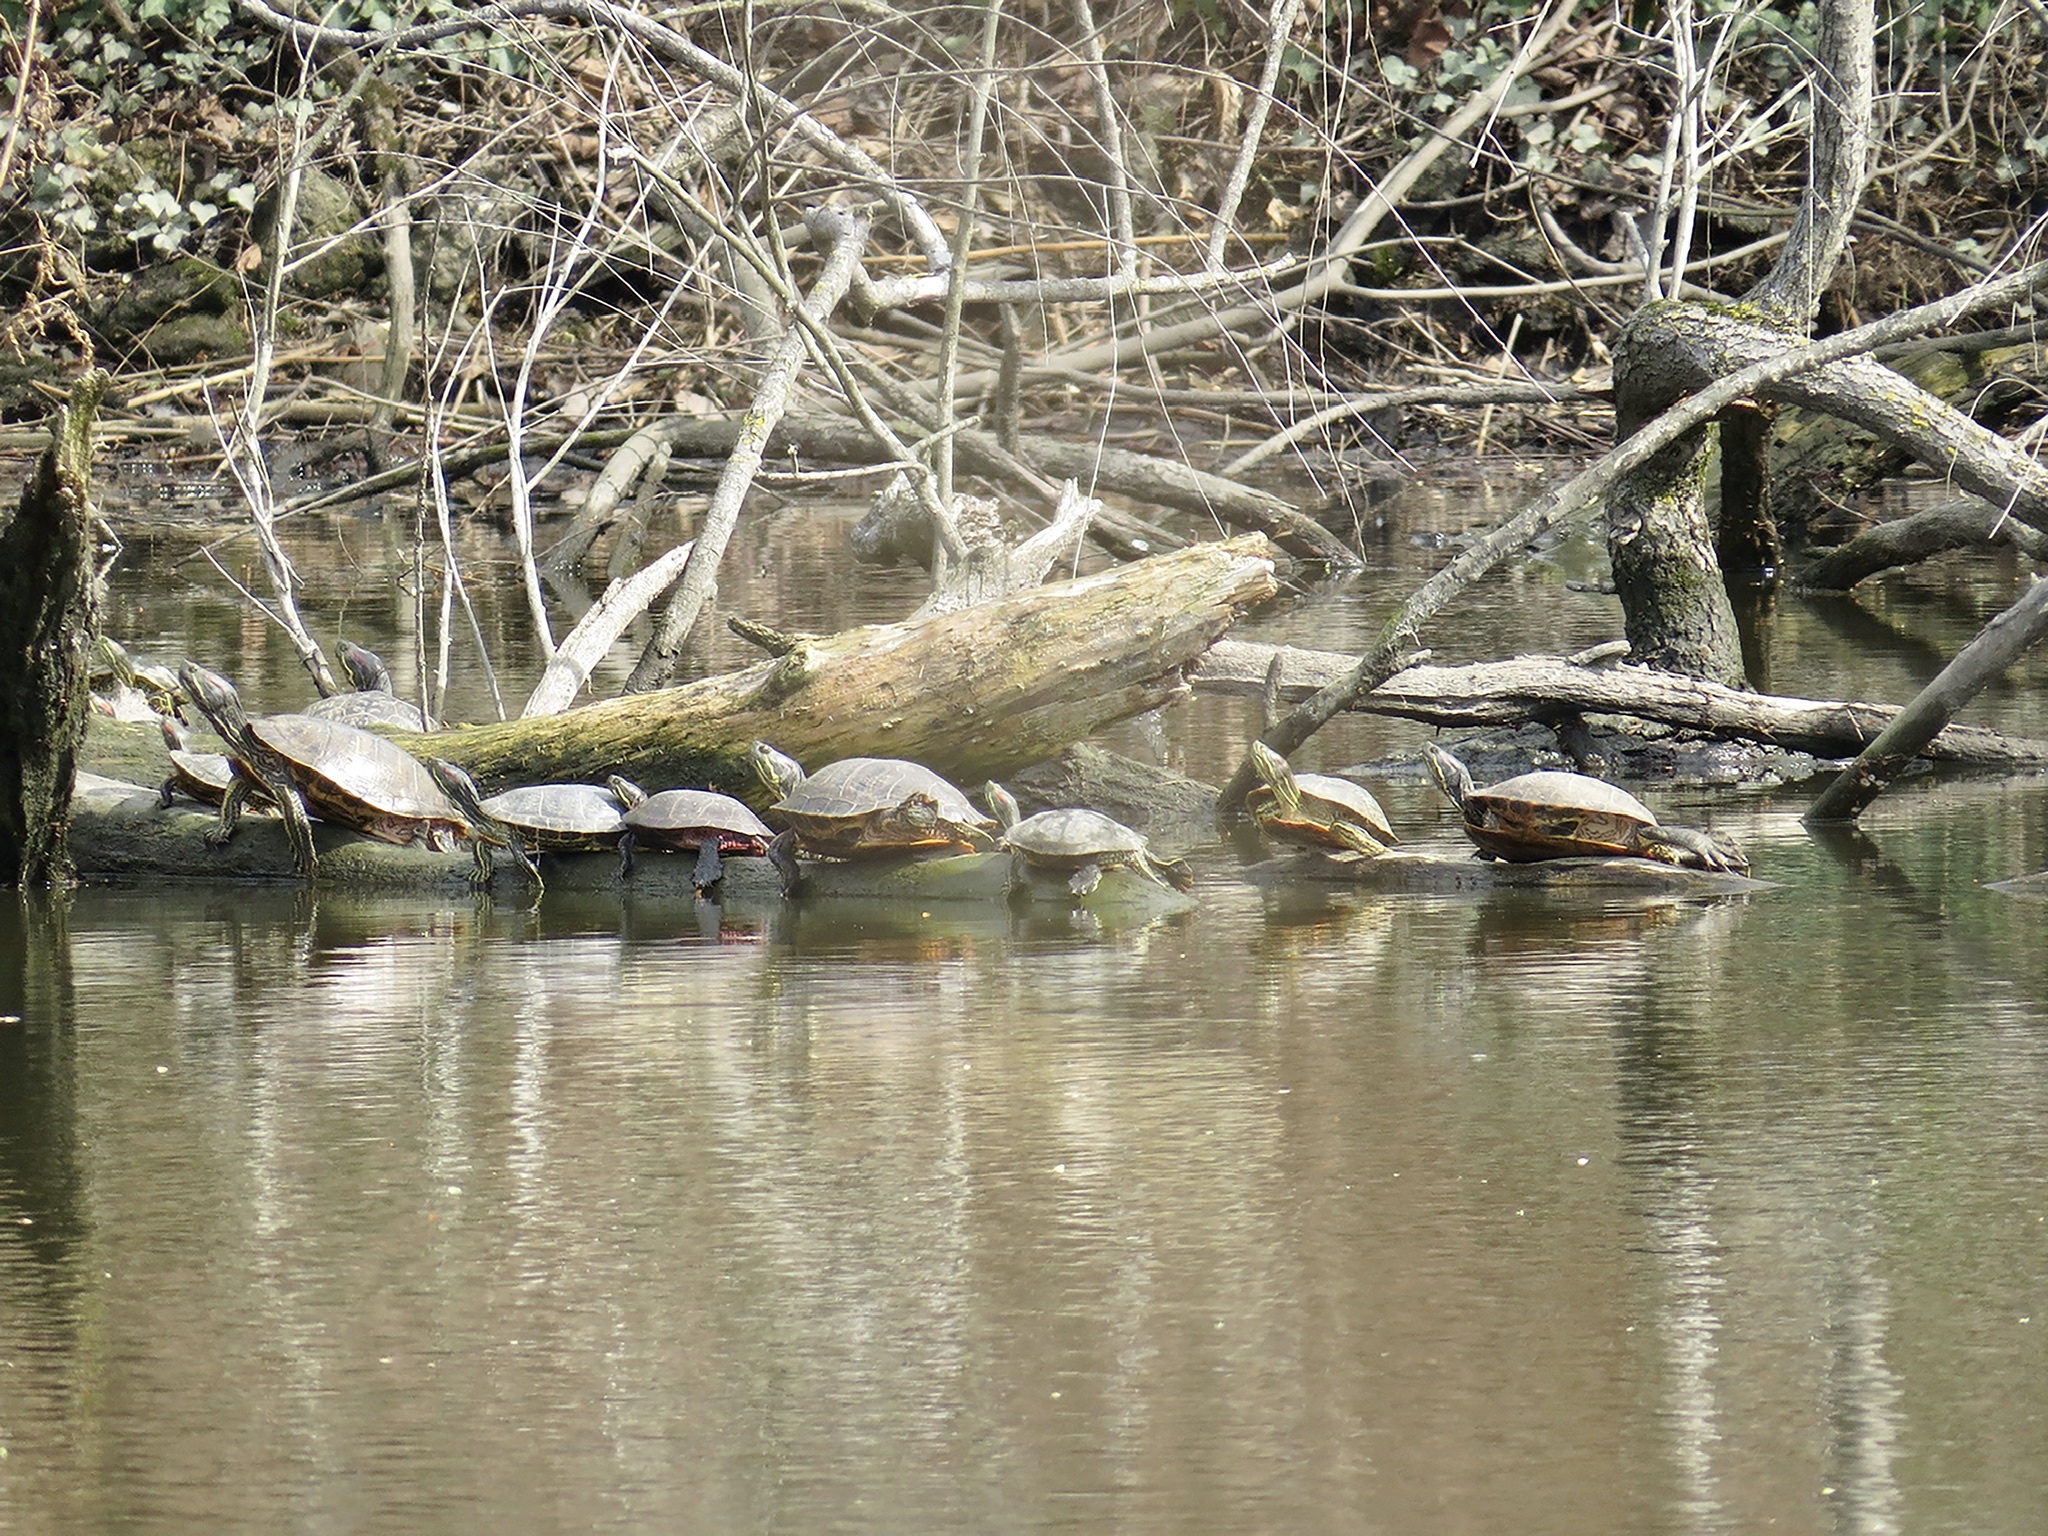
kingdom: Animalia
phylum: Chordata
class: Testudines
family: Emydidae
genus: Trachemys
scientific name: Trachemys scripta
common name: Slider
